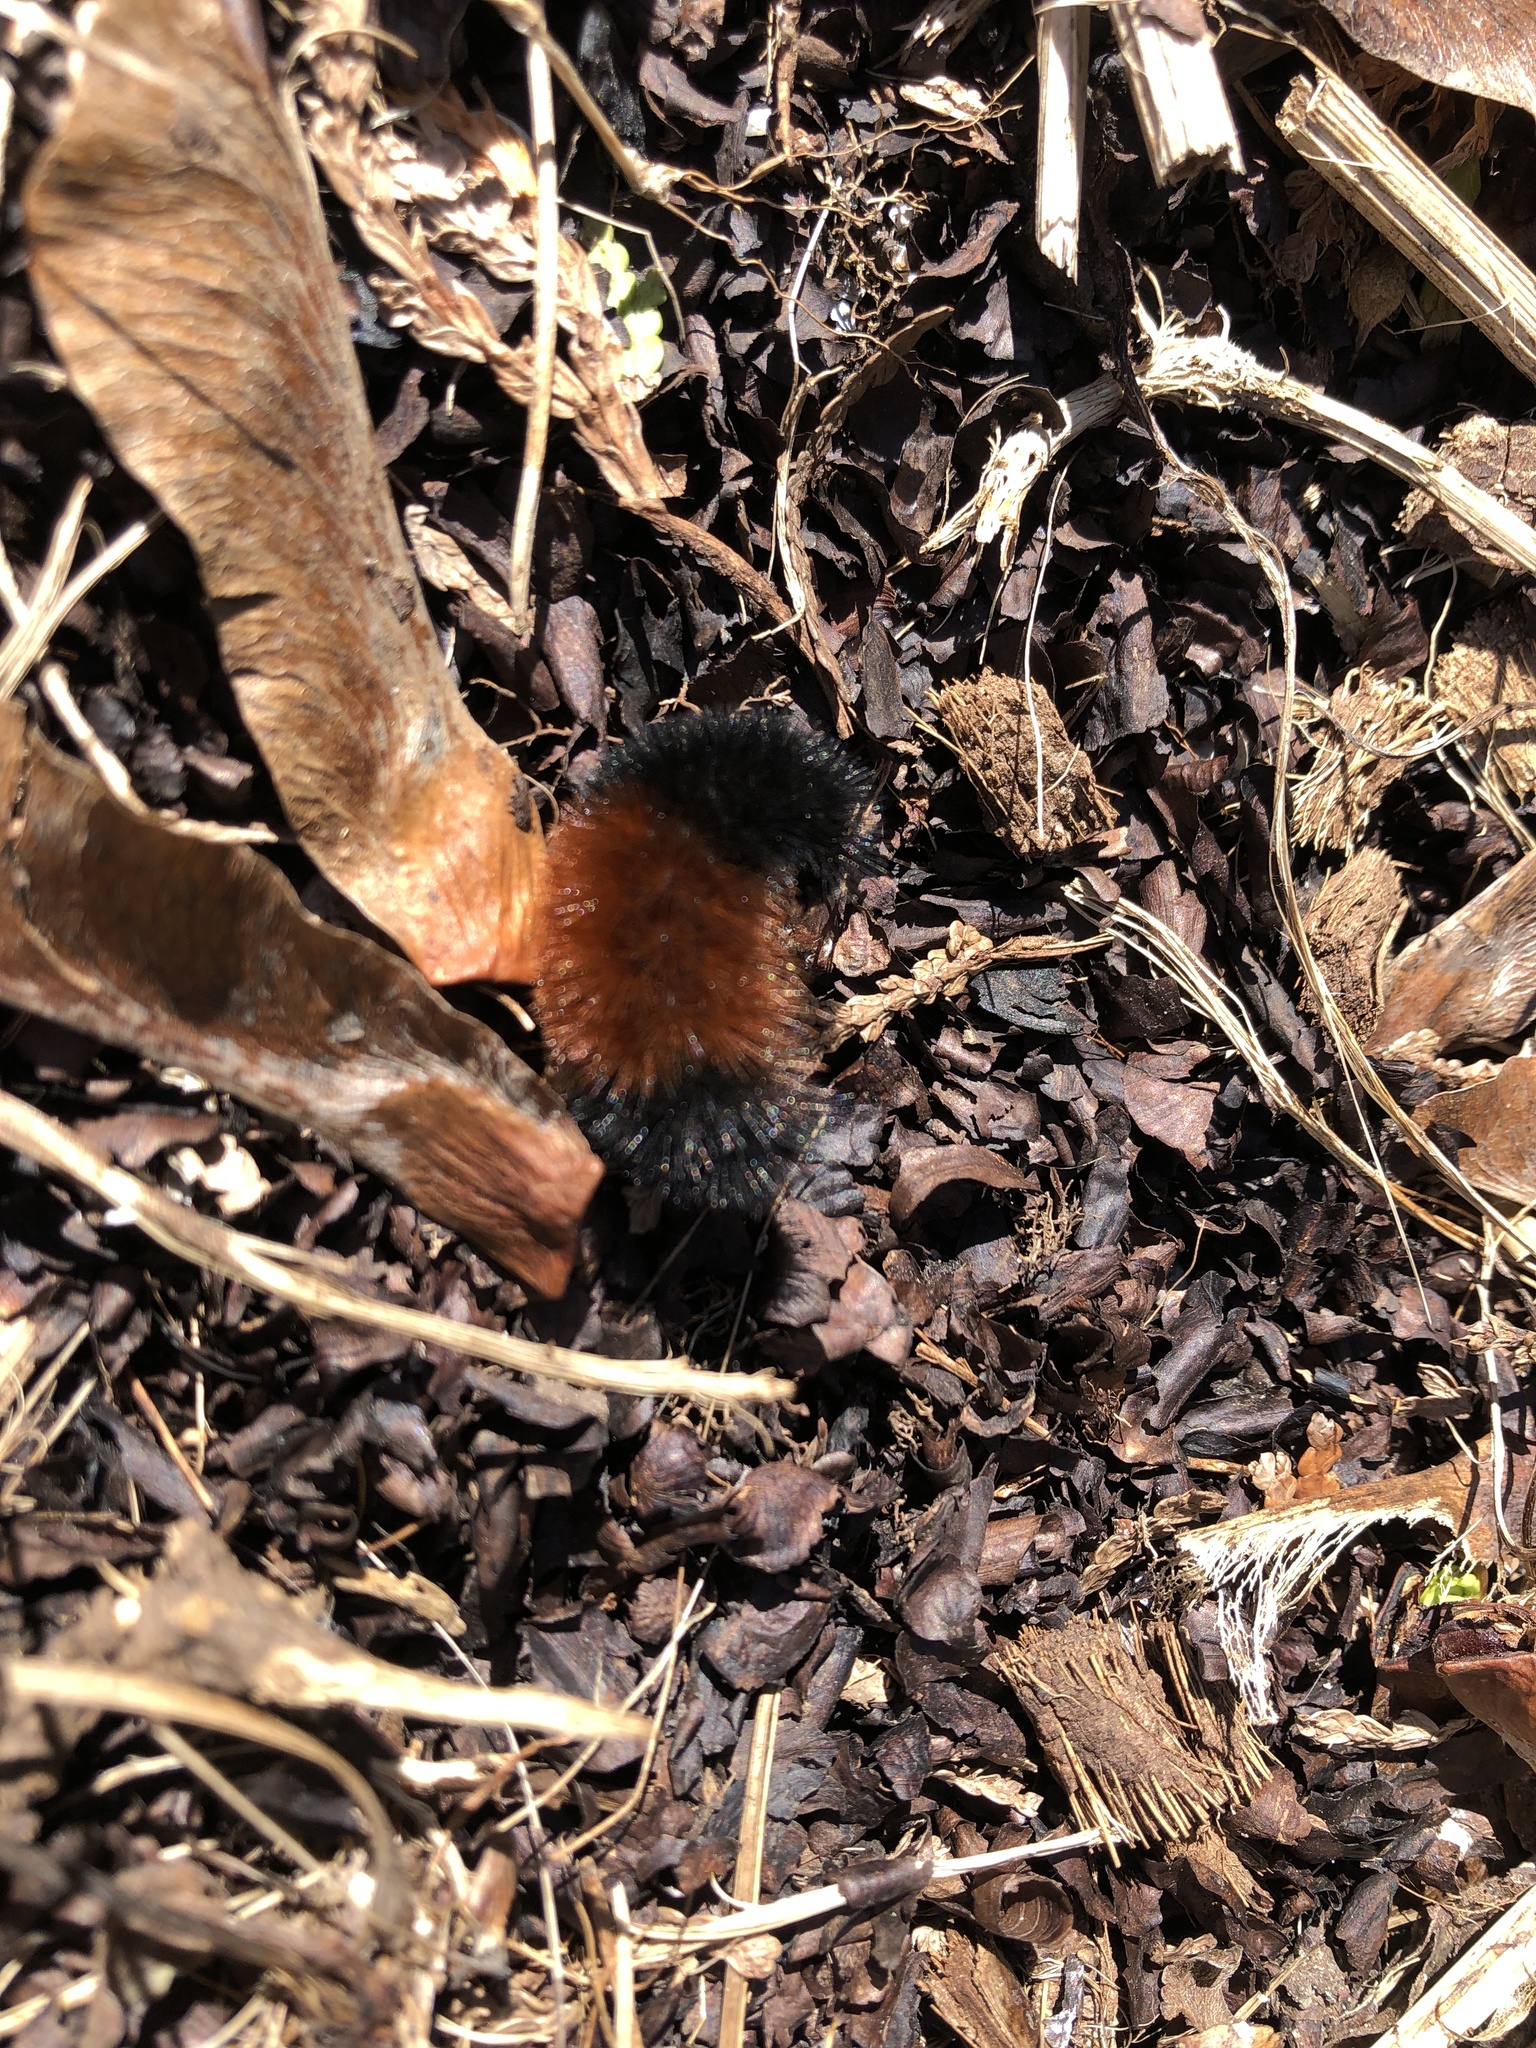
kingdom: Animalia
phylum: Arthropoda
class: Insecta
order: Lepidoptera
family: Erebidae
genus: Pyrrharctia
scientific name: Pyrrharctia isabella
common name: Isabella tiger moth
